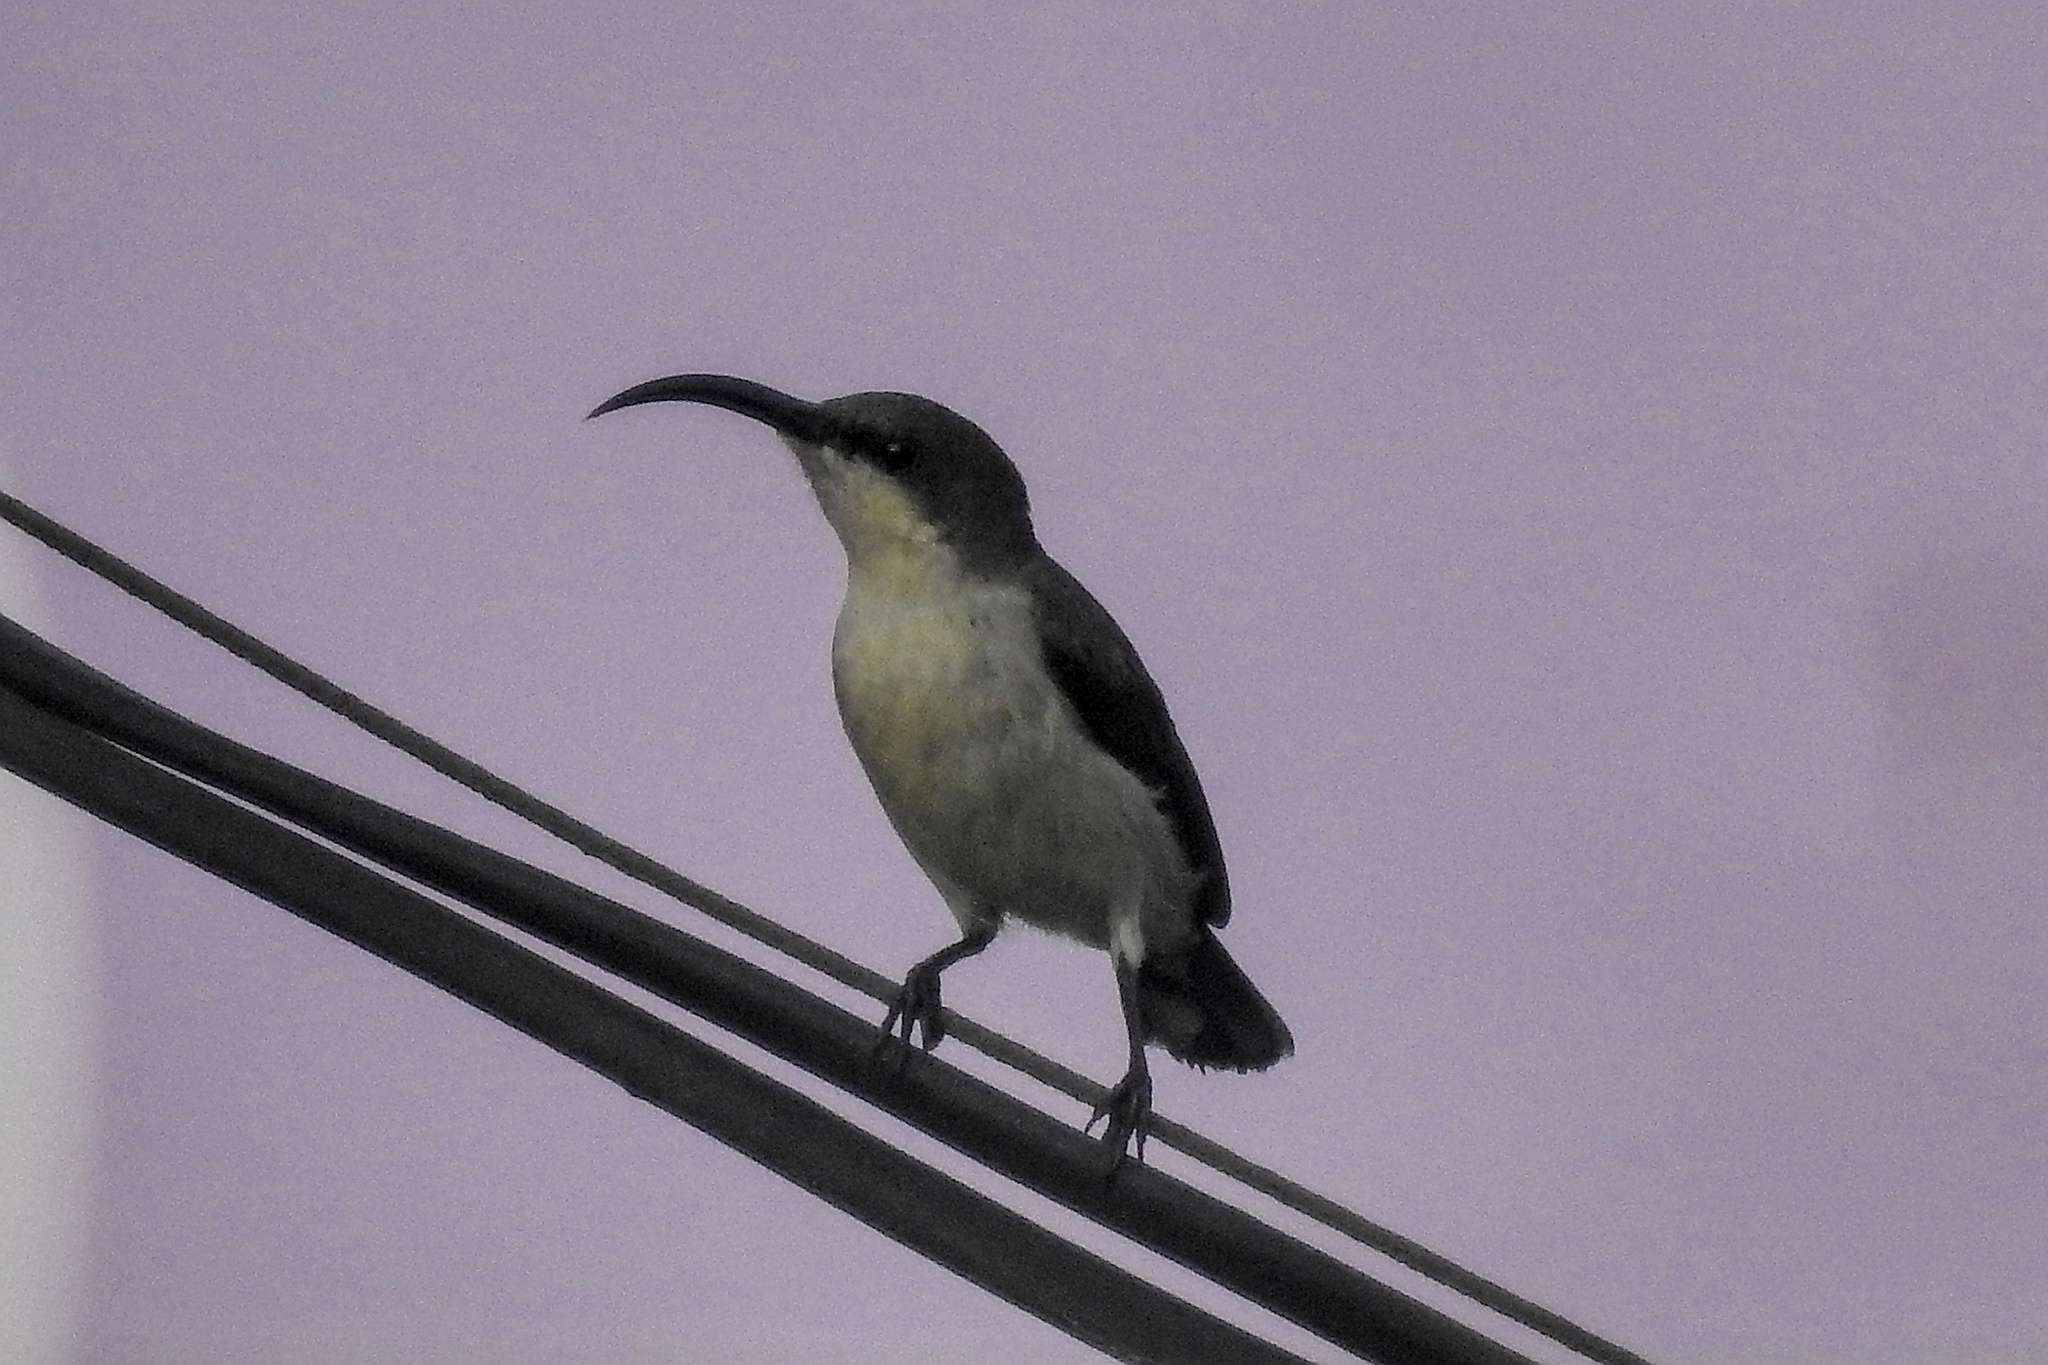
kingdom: Animalia
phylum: Chordata
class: Aves
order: Passeriformes
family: Nectariniidae
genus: Cinnyris
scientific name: Cinnyris lotenius
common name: Loten's sunbird
